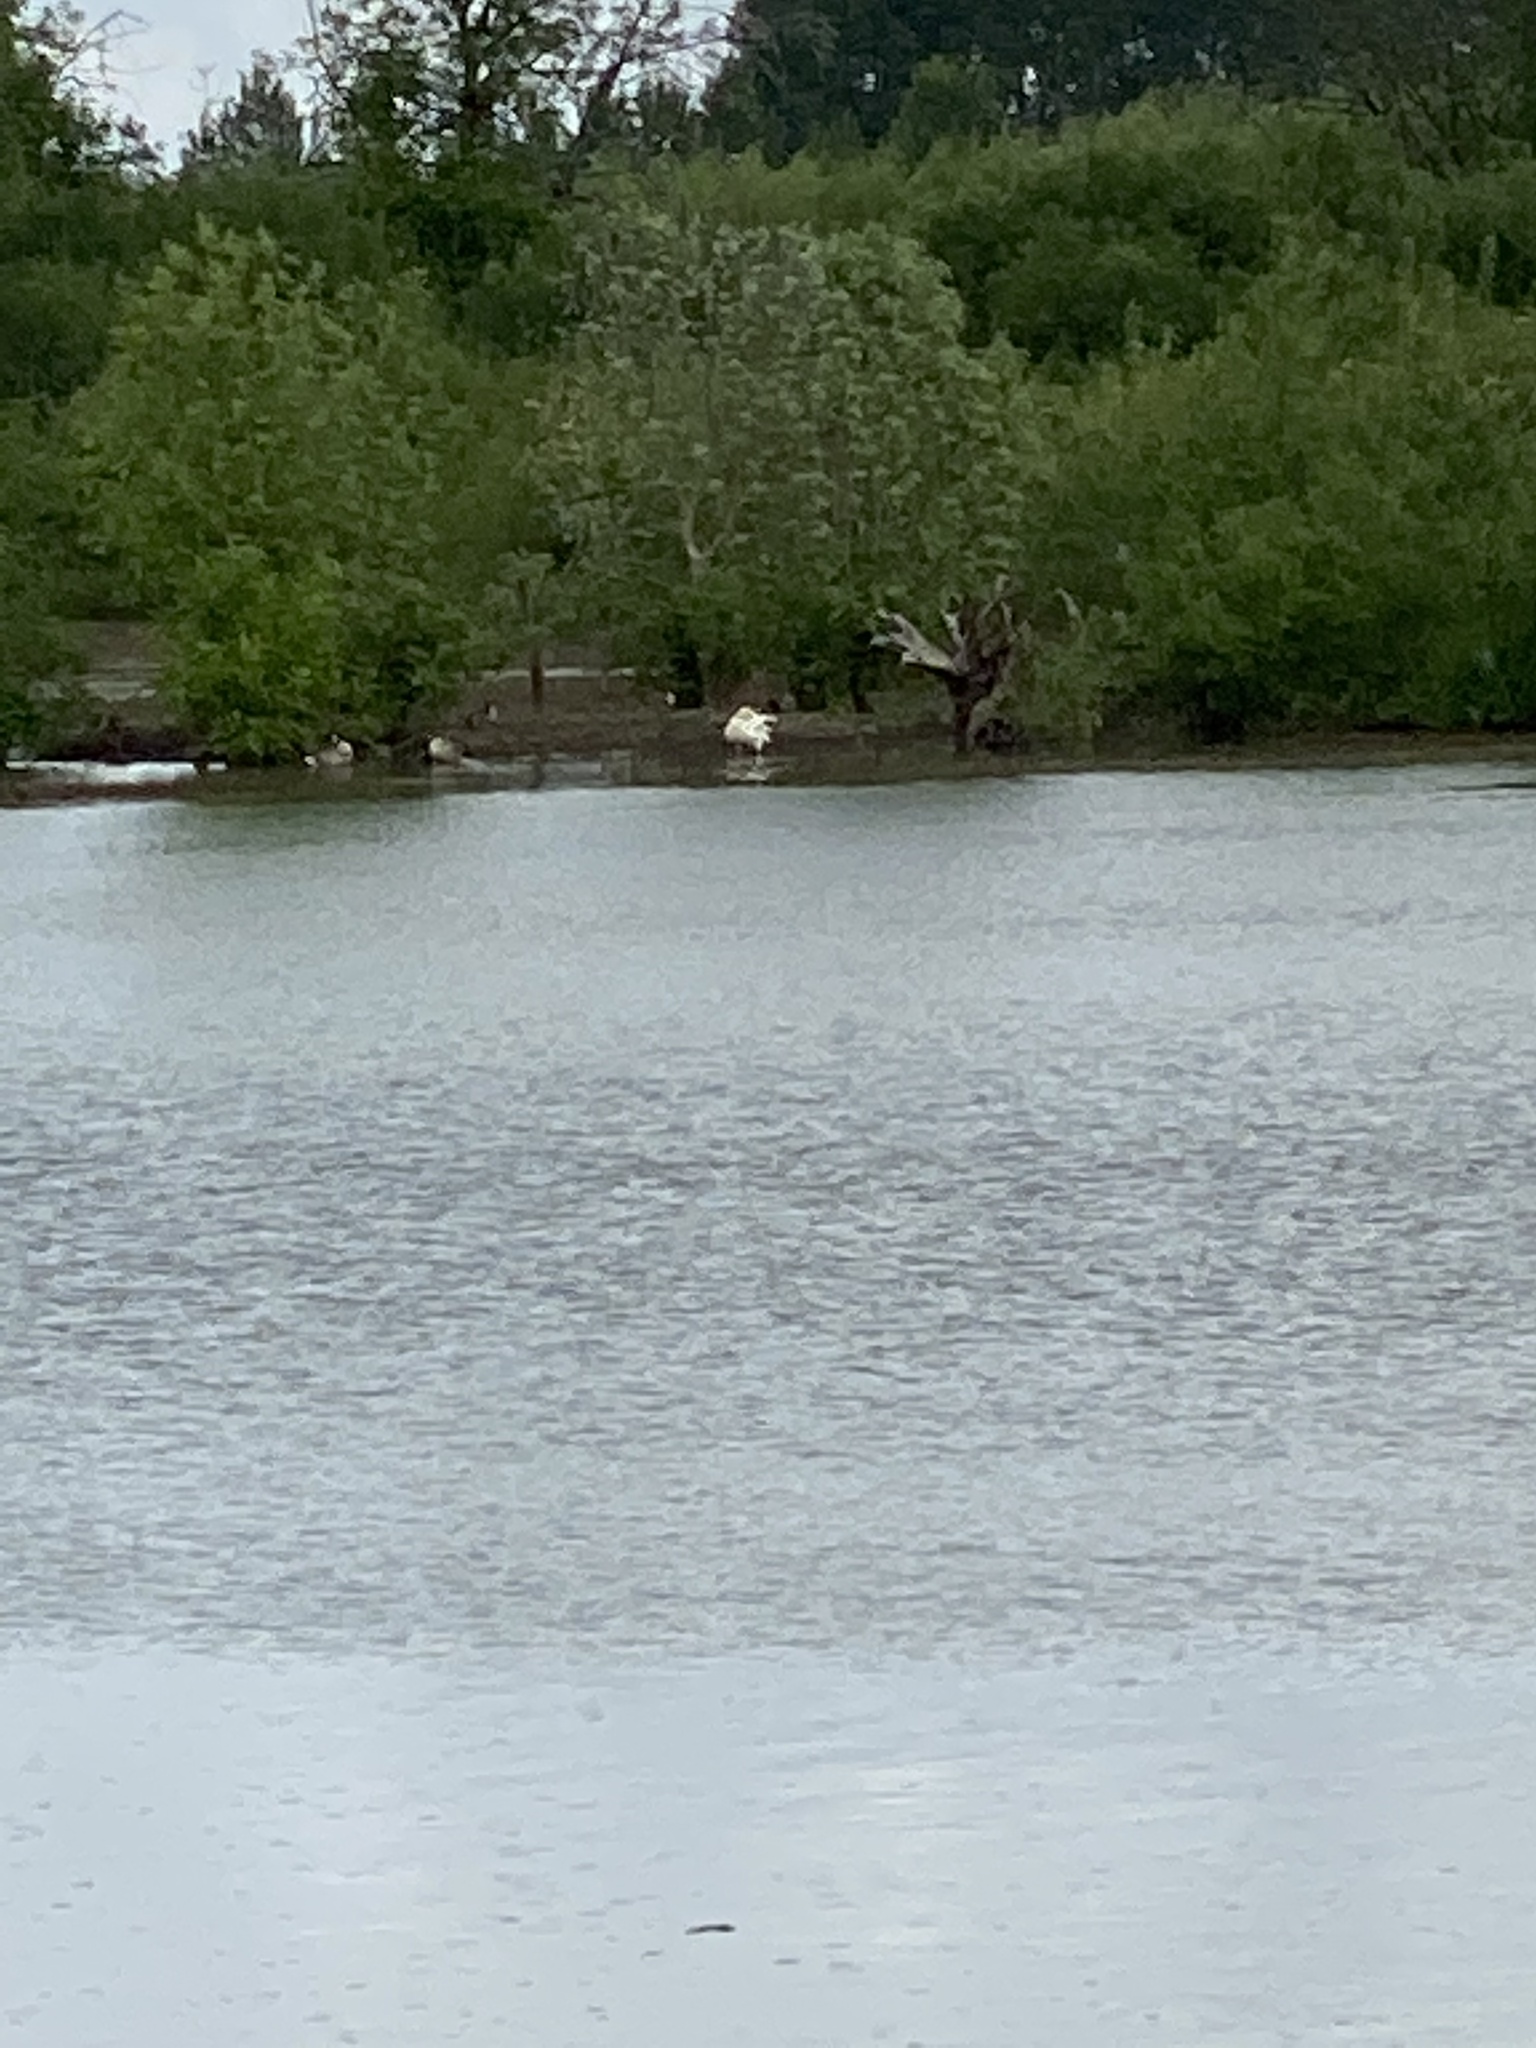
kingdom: Animalia
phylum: Chordata
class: Aves
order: Anseriformes
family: Anatidae
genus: Cygnus
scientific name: Cygnus columbianus
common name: Tundra swan
